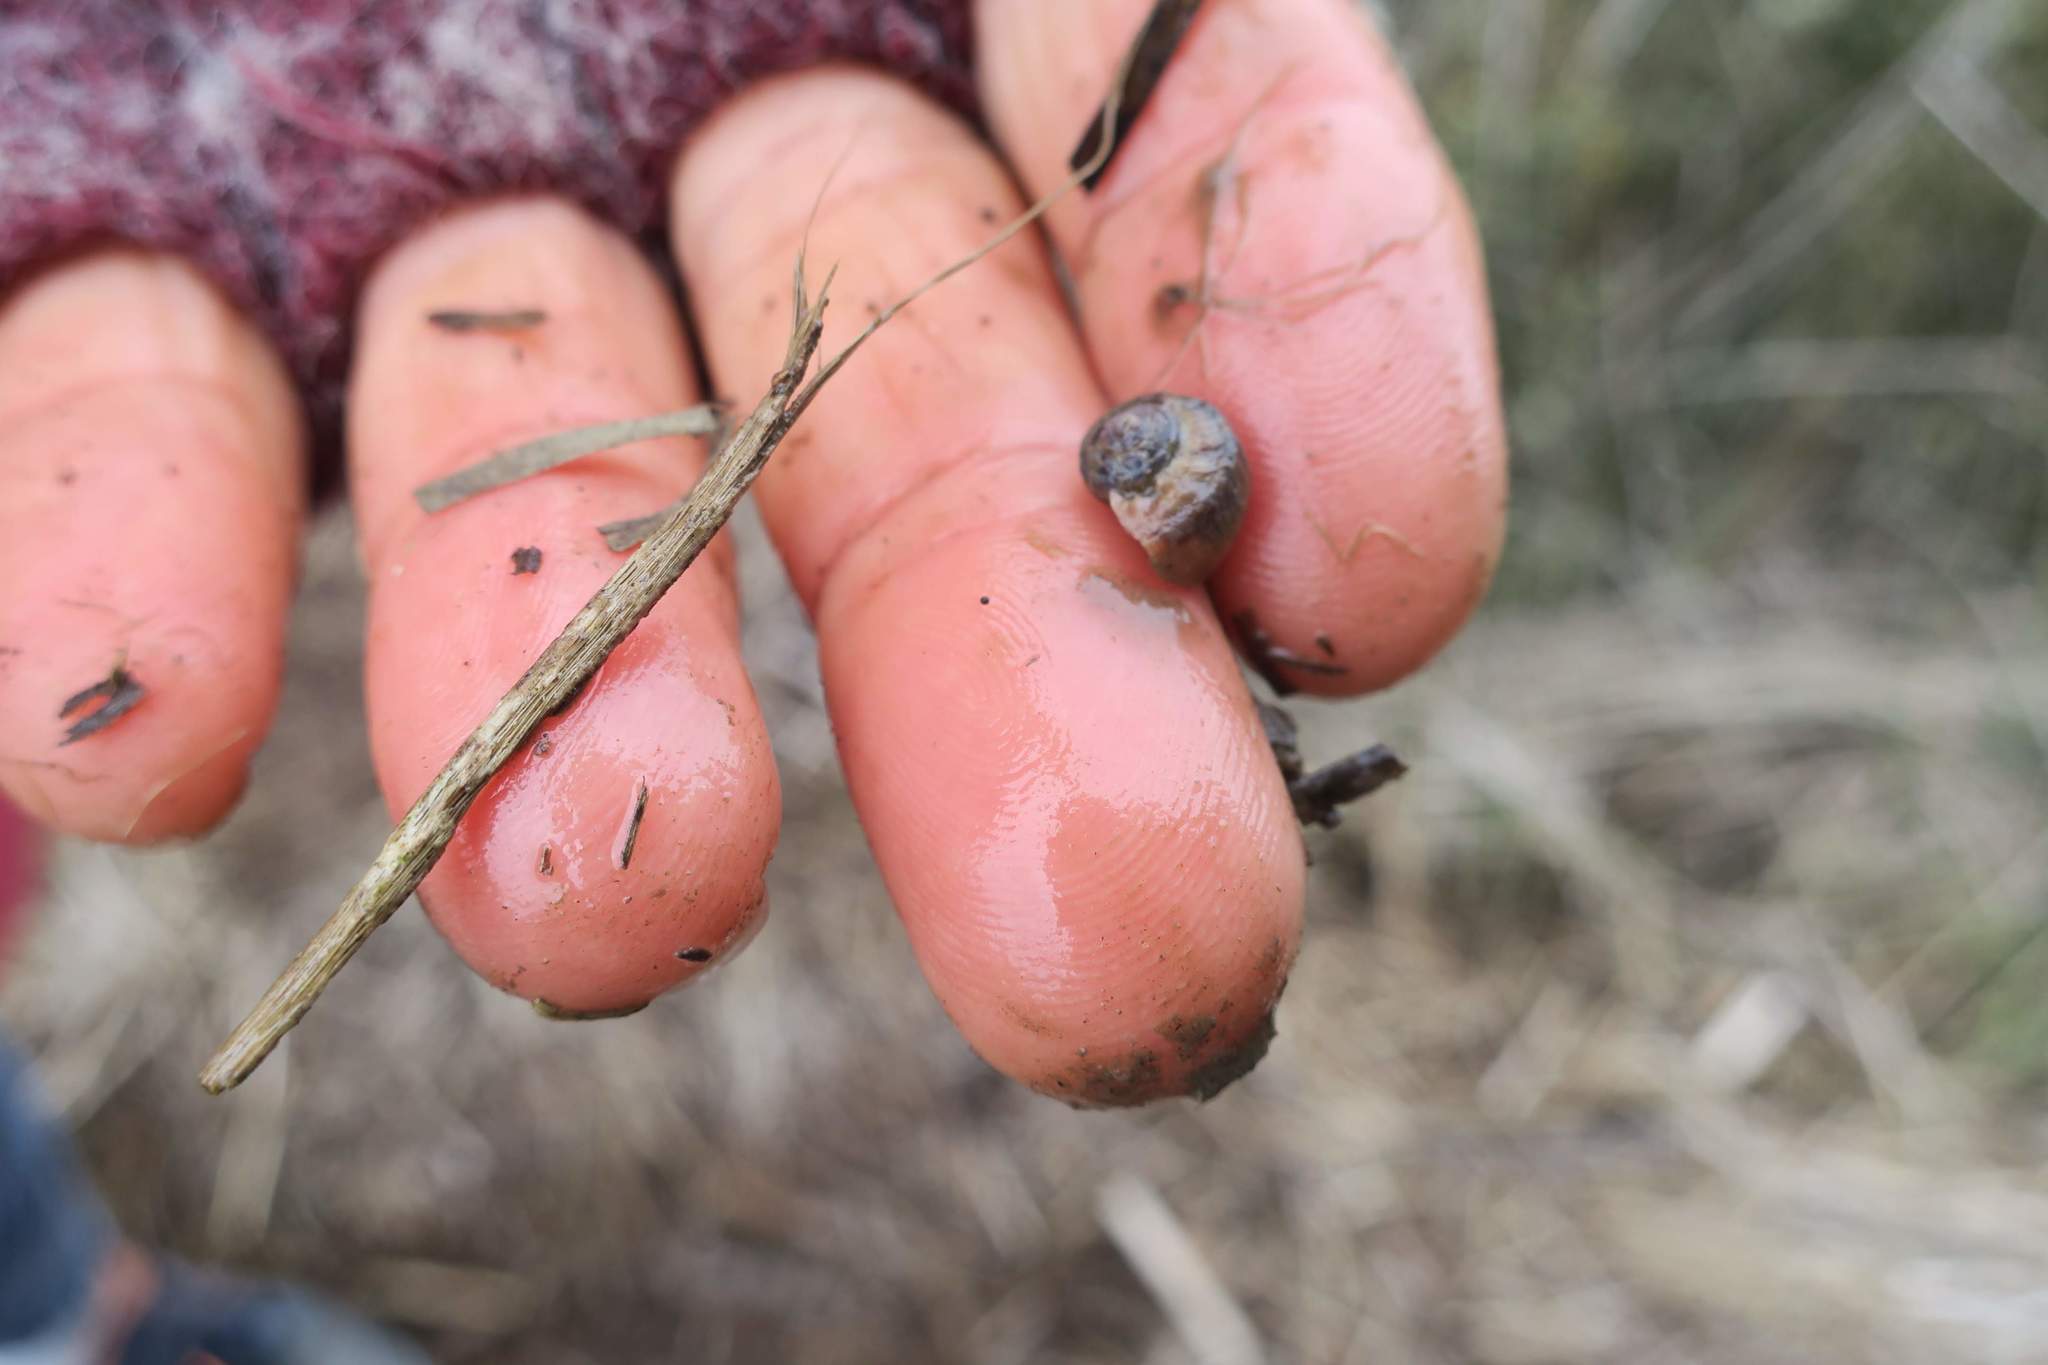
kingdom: Animalia
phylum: Mollusca
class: Gastropoda
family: Amphibolidae
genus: Amphibola
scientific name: Amphibola crenata
